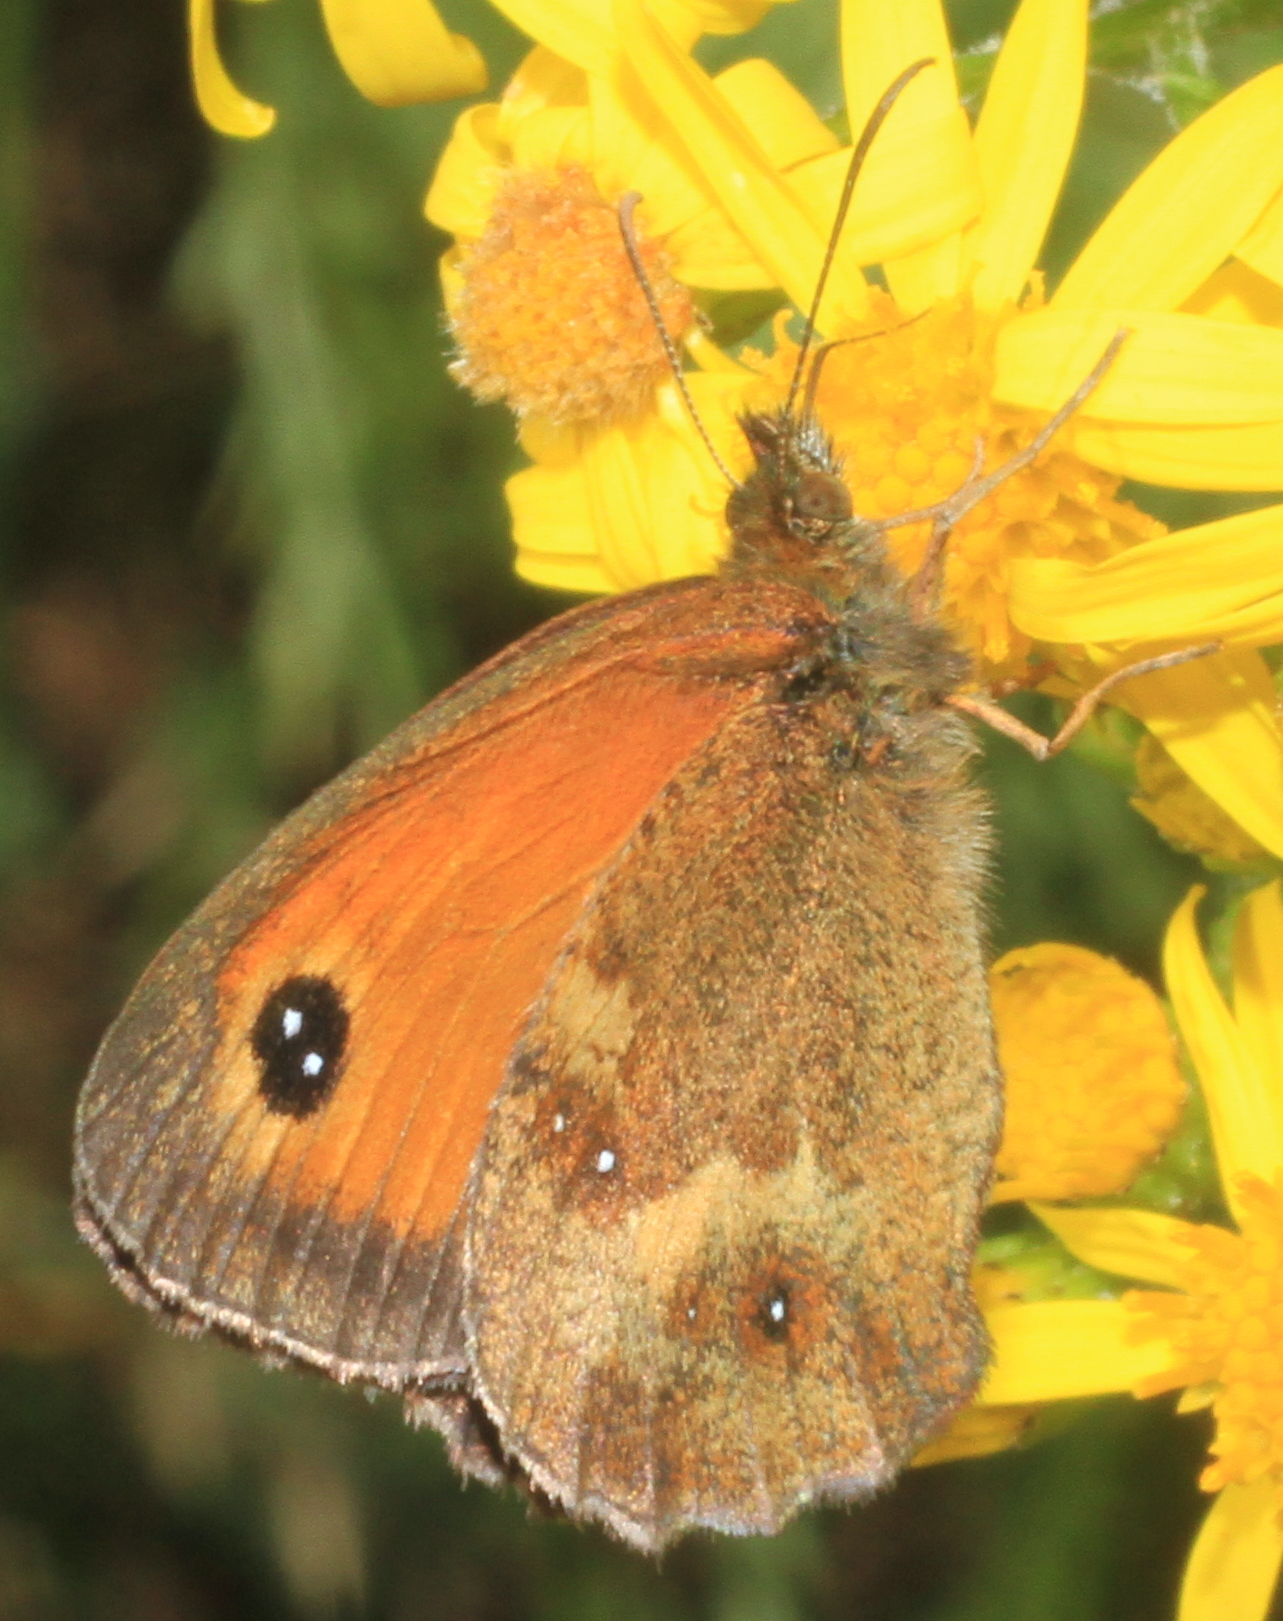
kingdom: Animalia
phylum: Arthropoda
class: Insecta
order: Lepidoptera
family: Nymphalidae
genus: Pyronia
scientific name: Pyronia tithonus
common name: Gatekeeper
